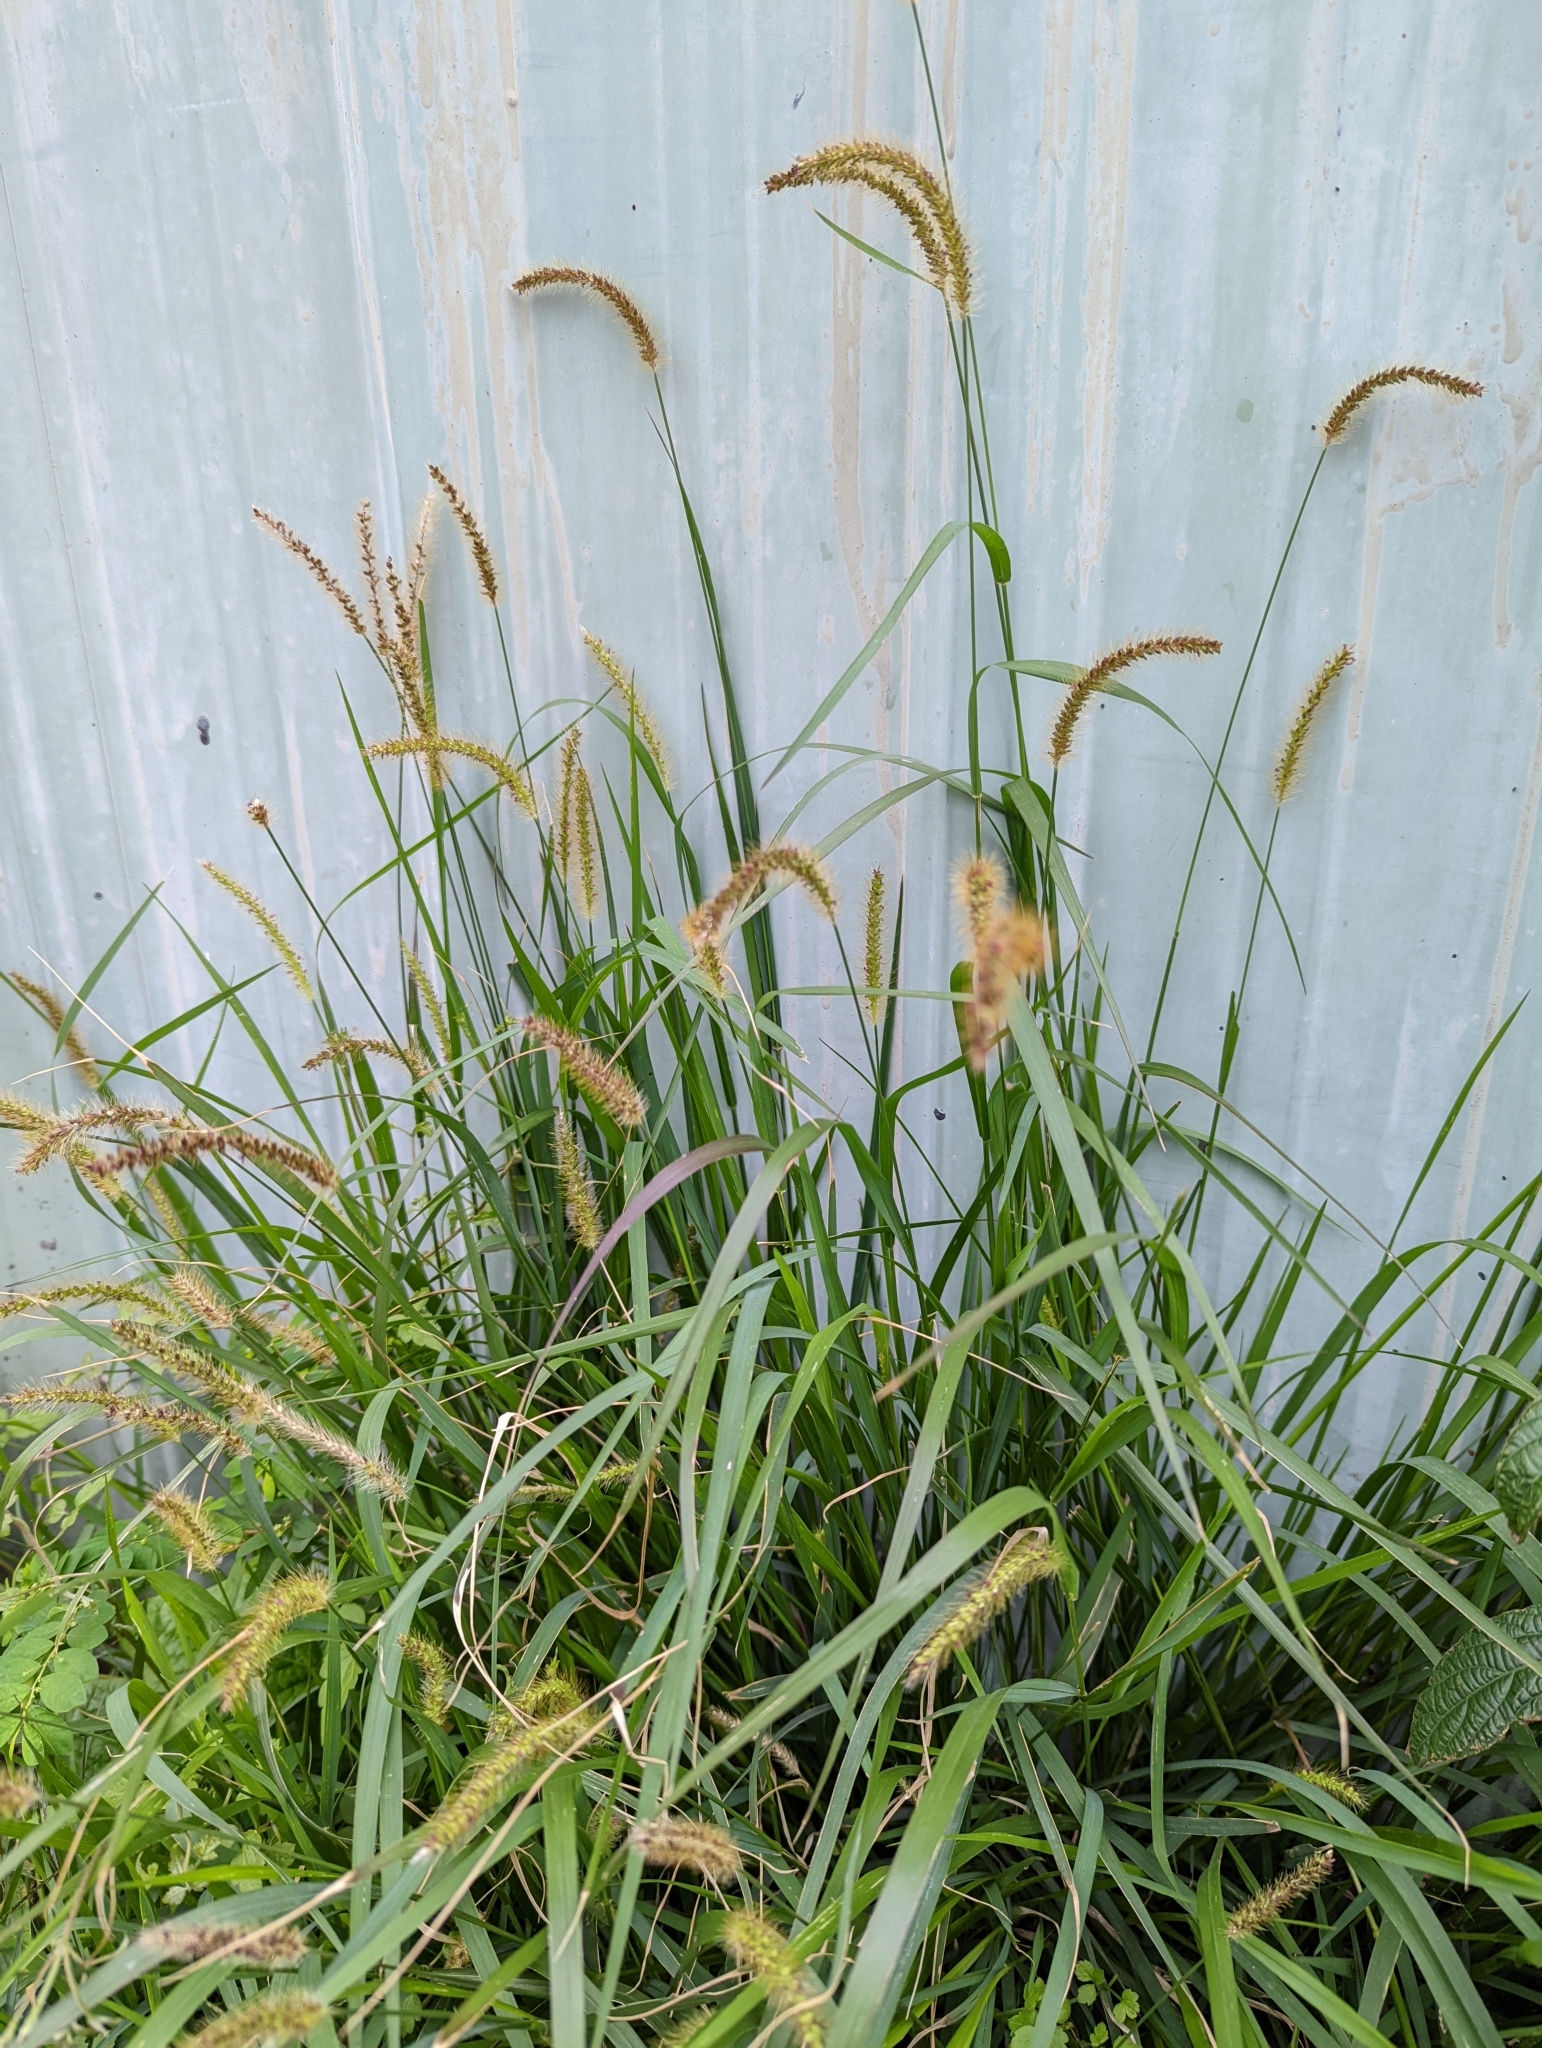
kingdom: Plantae
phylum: Tracheophyta
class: Liliopsida
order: Poales
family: Poaceae
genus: Setaria
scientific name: Setaria parviflora
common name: Knotroot bristle-grass
